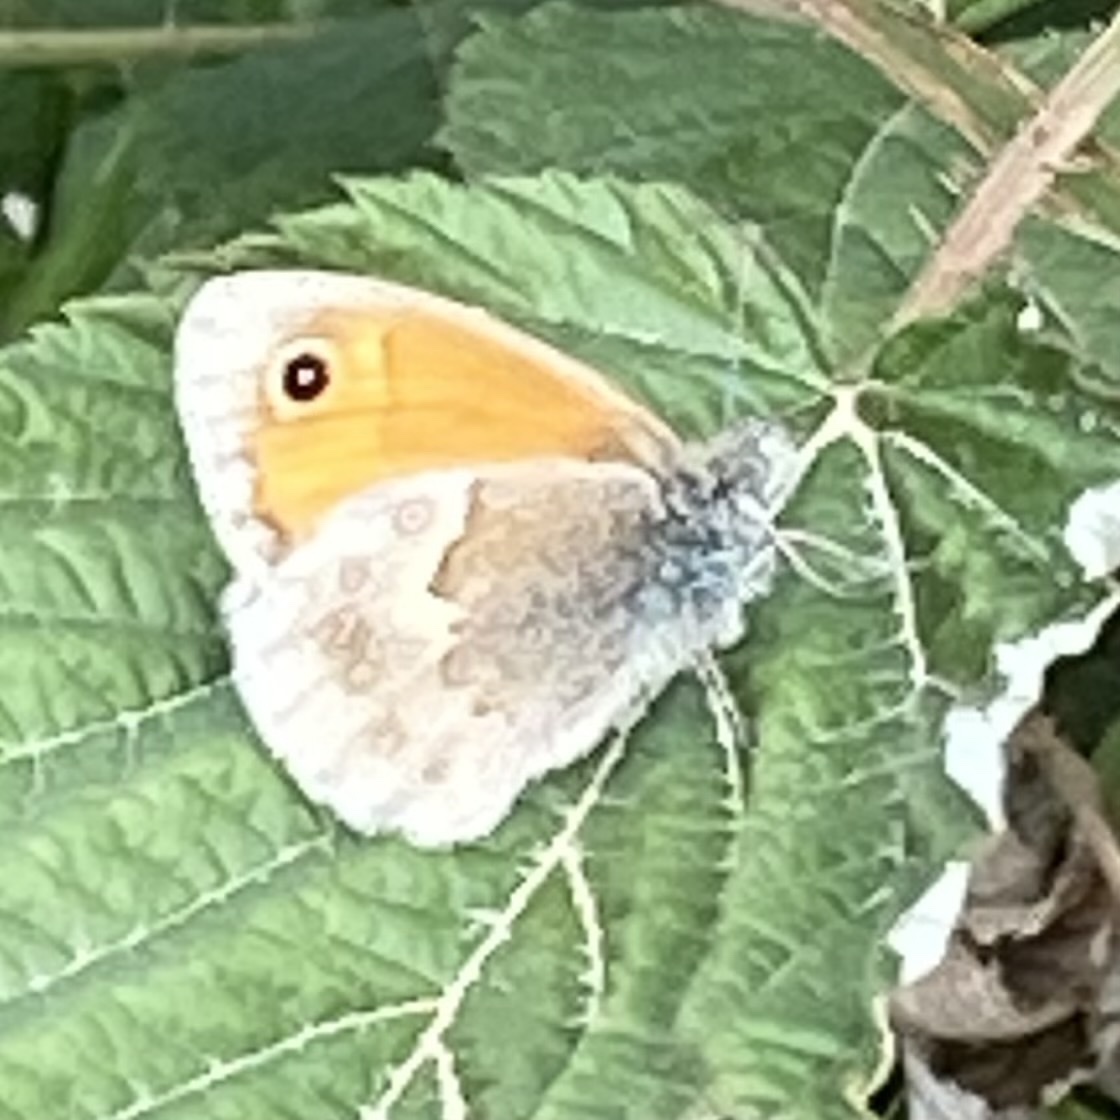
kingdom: Animalia
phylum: Arthropoda
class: Insecta
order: Lepidoptera
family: Nymphalidae
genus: Coenonympha
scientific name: Coenonympha pamphilus
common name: Small heath
